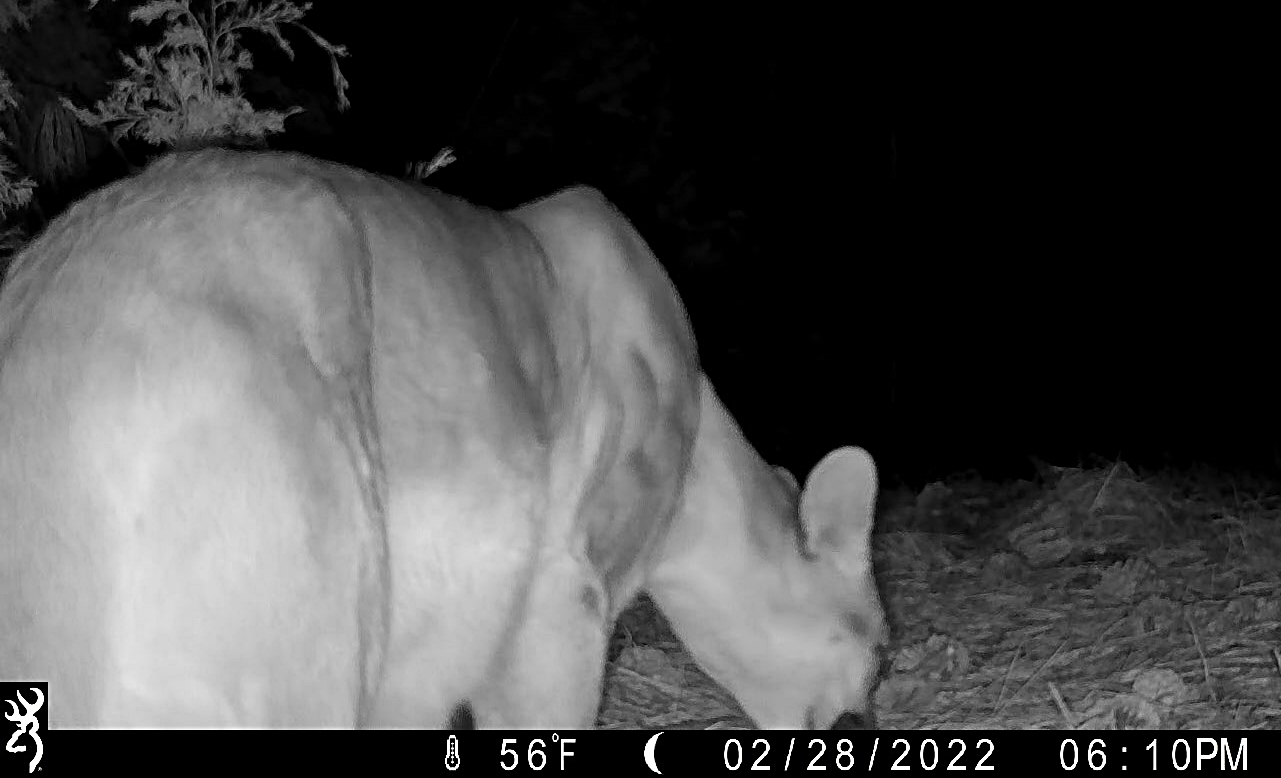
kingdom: Animalia
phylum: Chordata
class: Mammalia
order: Carnivora
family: Felidae
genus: Puma
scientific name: Puma concolor
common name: Puma
